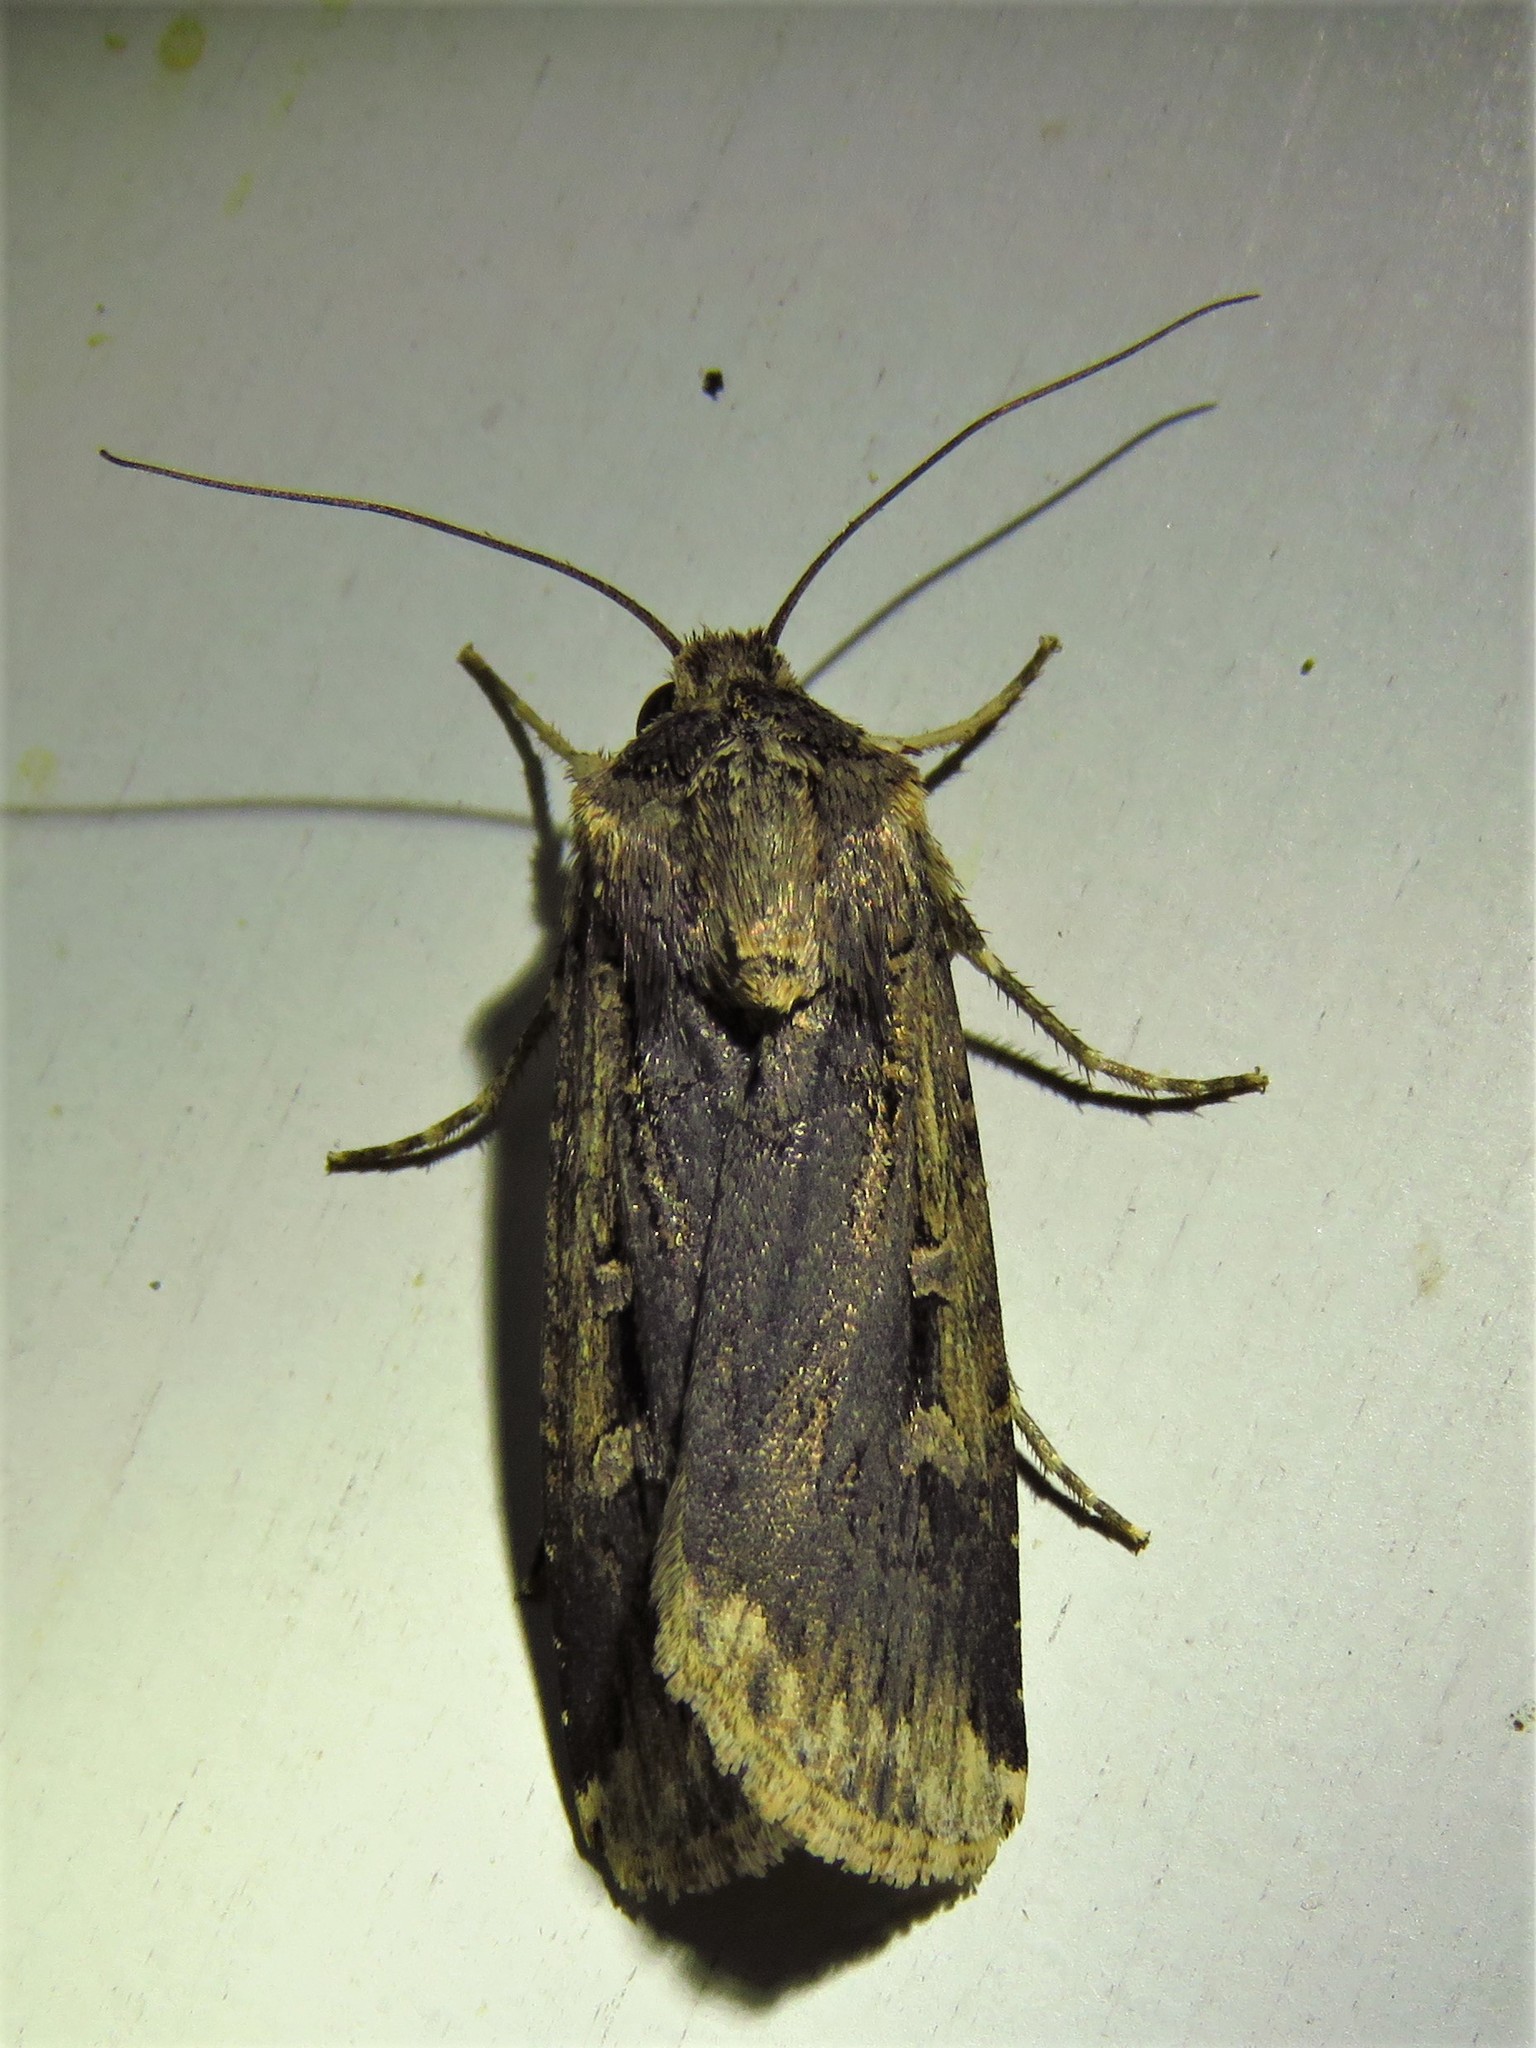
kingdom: Animalia
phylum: Arthropoda
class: Insecta
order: Lepidoptera
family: Noctuidae
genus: Feltia
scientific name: Feltia subterranea
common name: Granulate cutworm
